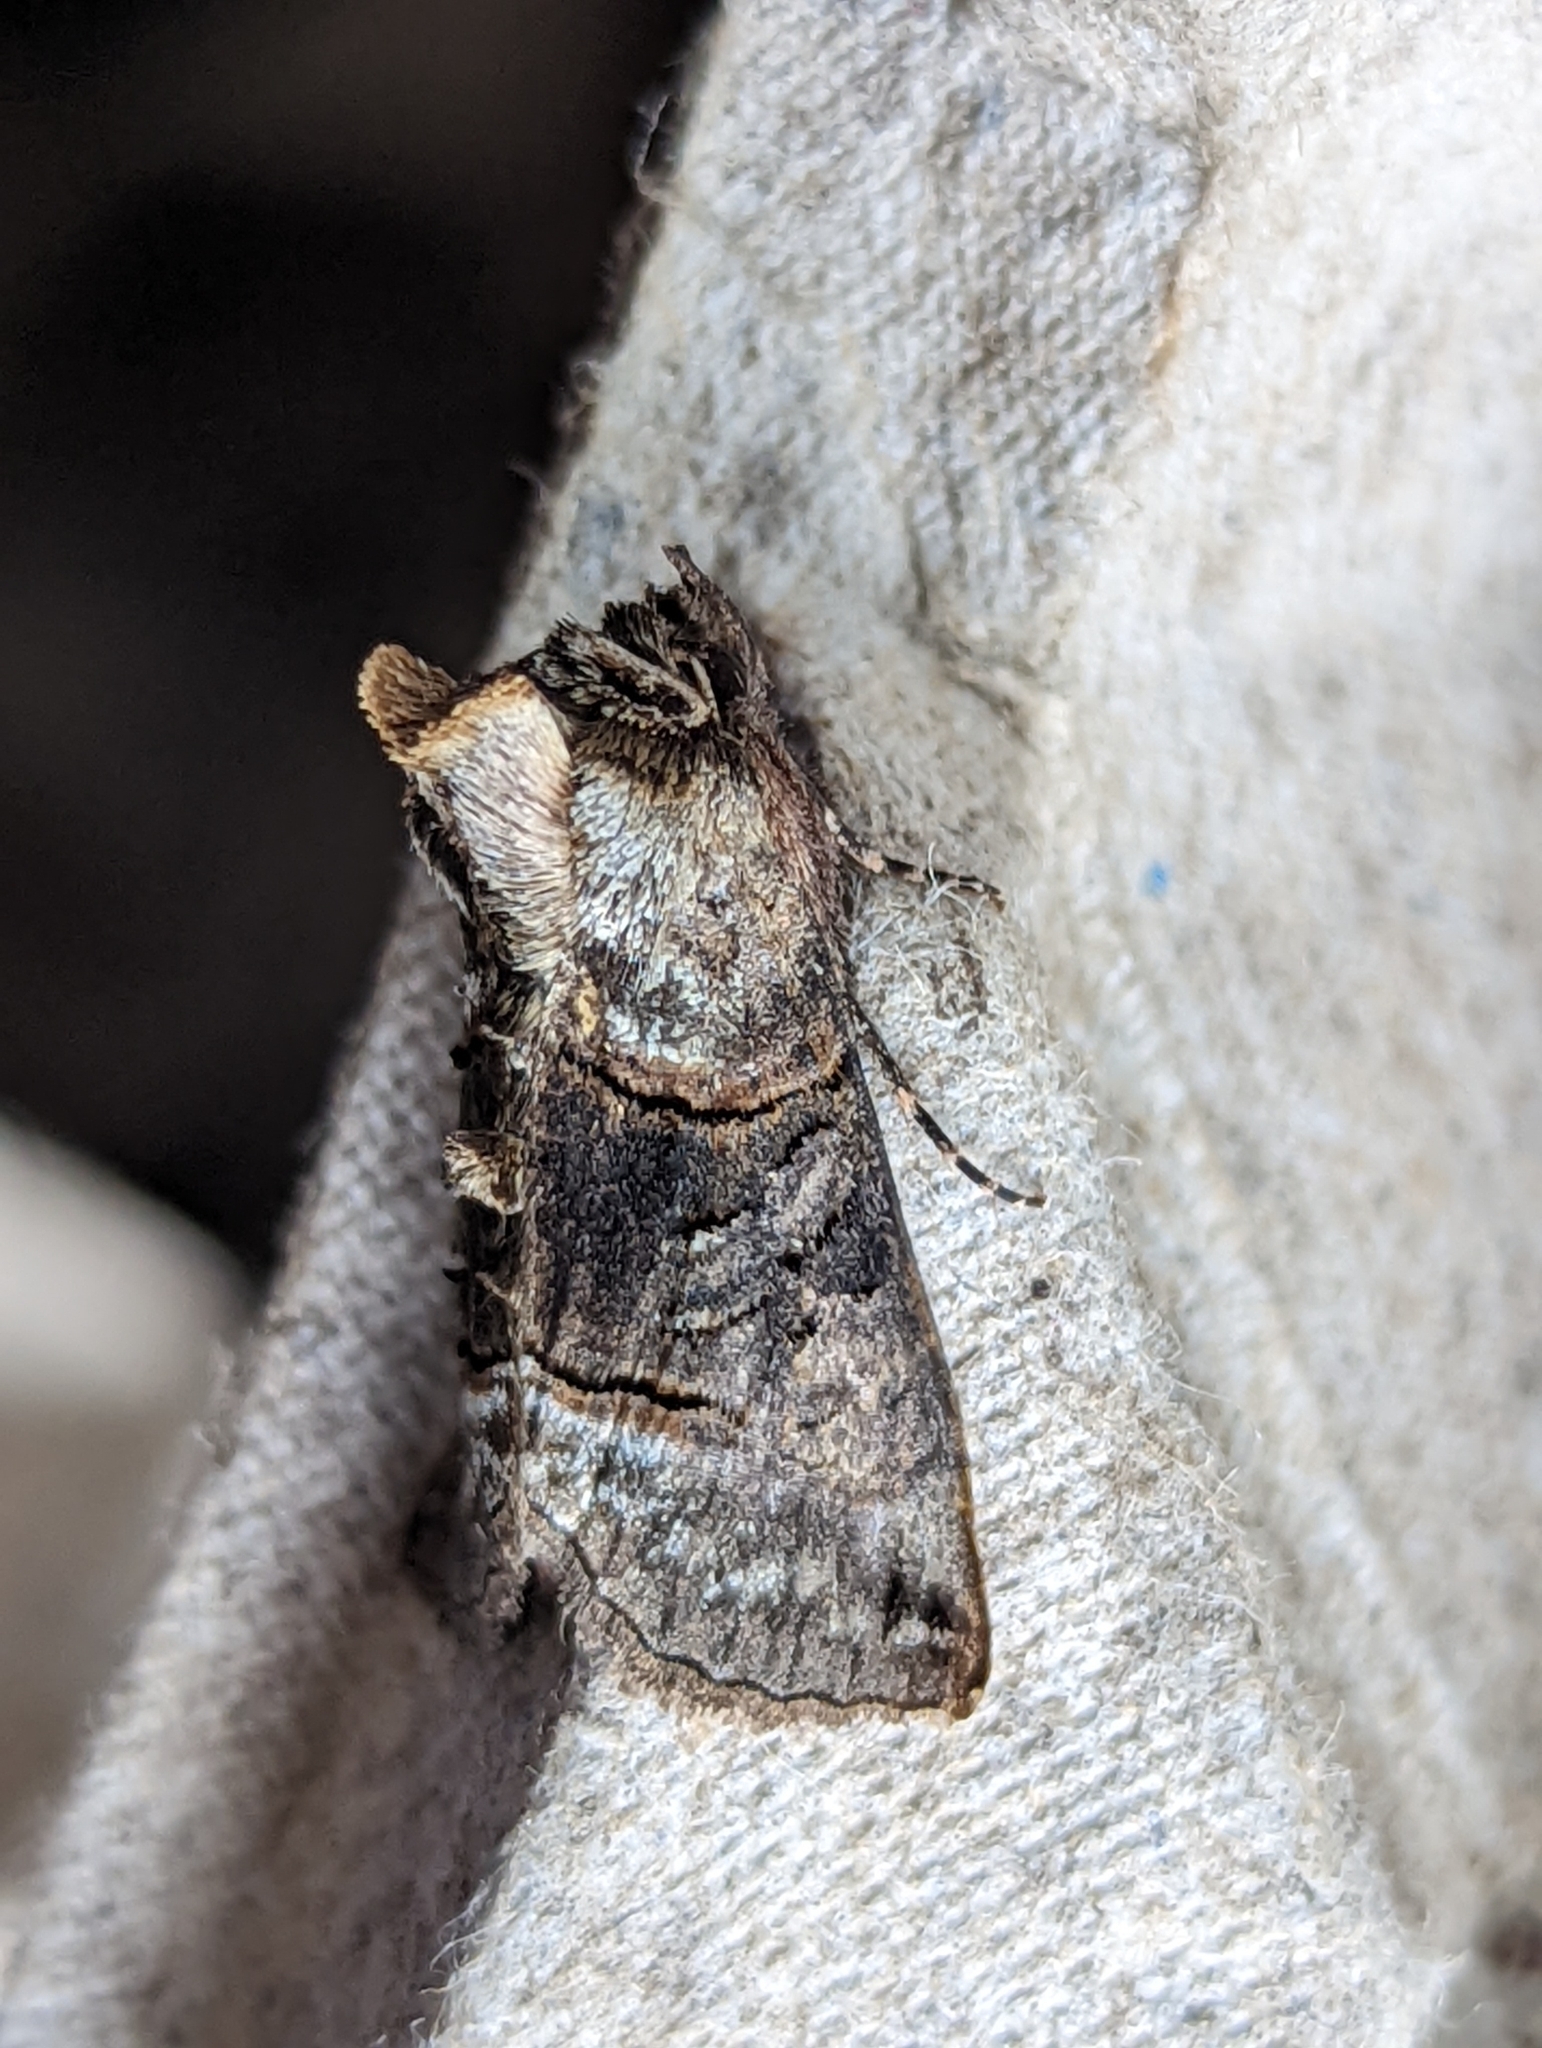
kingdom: Animalia
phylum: Arthropoda
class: Insecta
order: Lepidoptera
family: Noctuidae
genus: Abrostola
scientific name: Abrostola tripartita
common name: Spectacle
